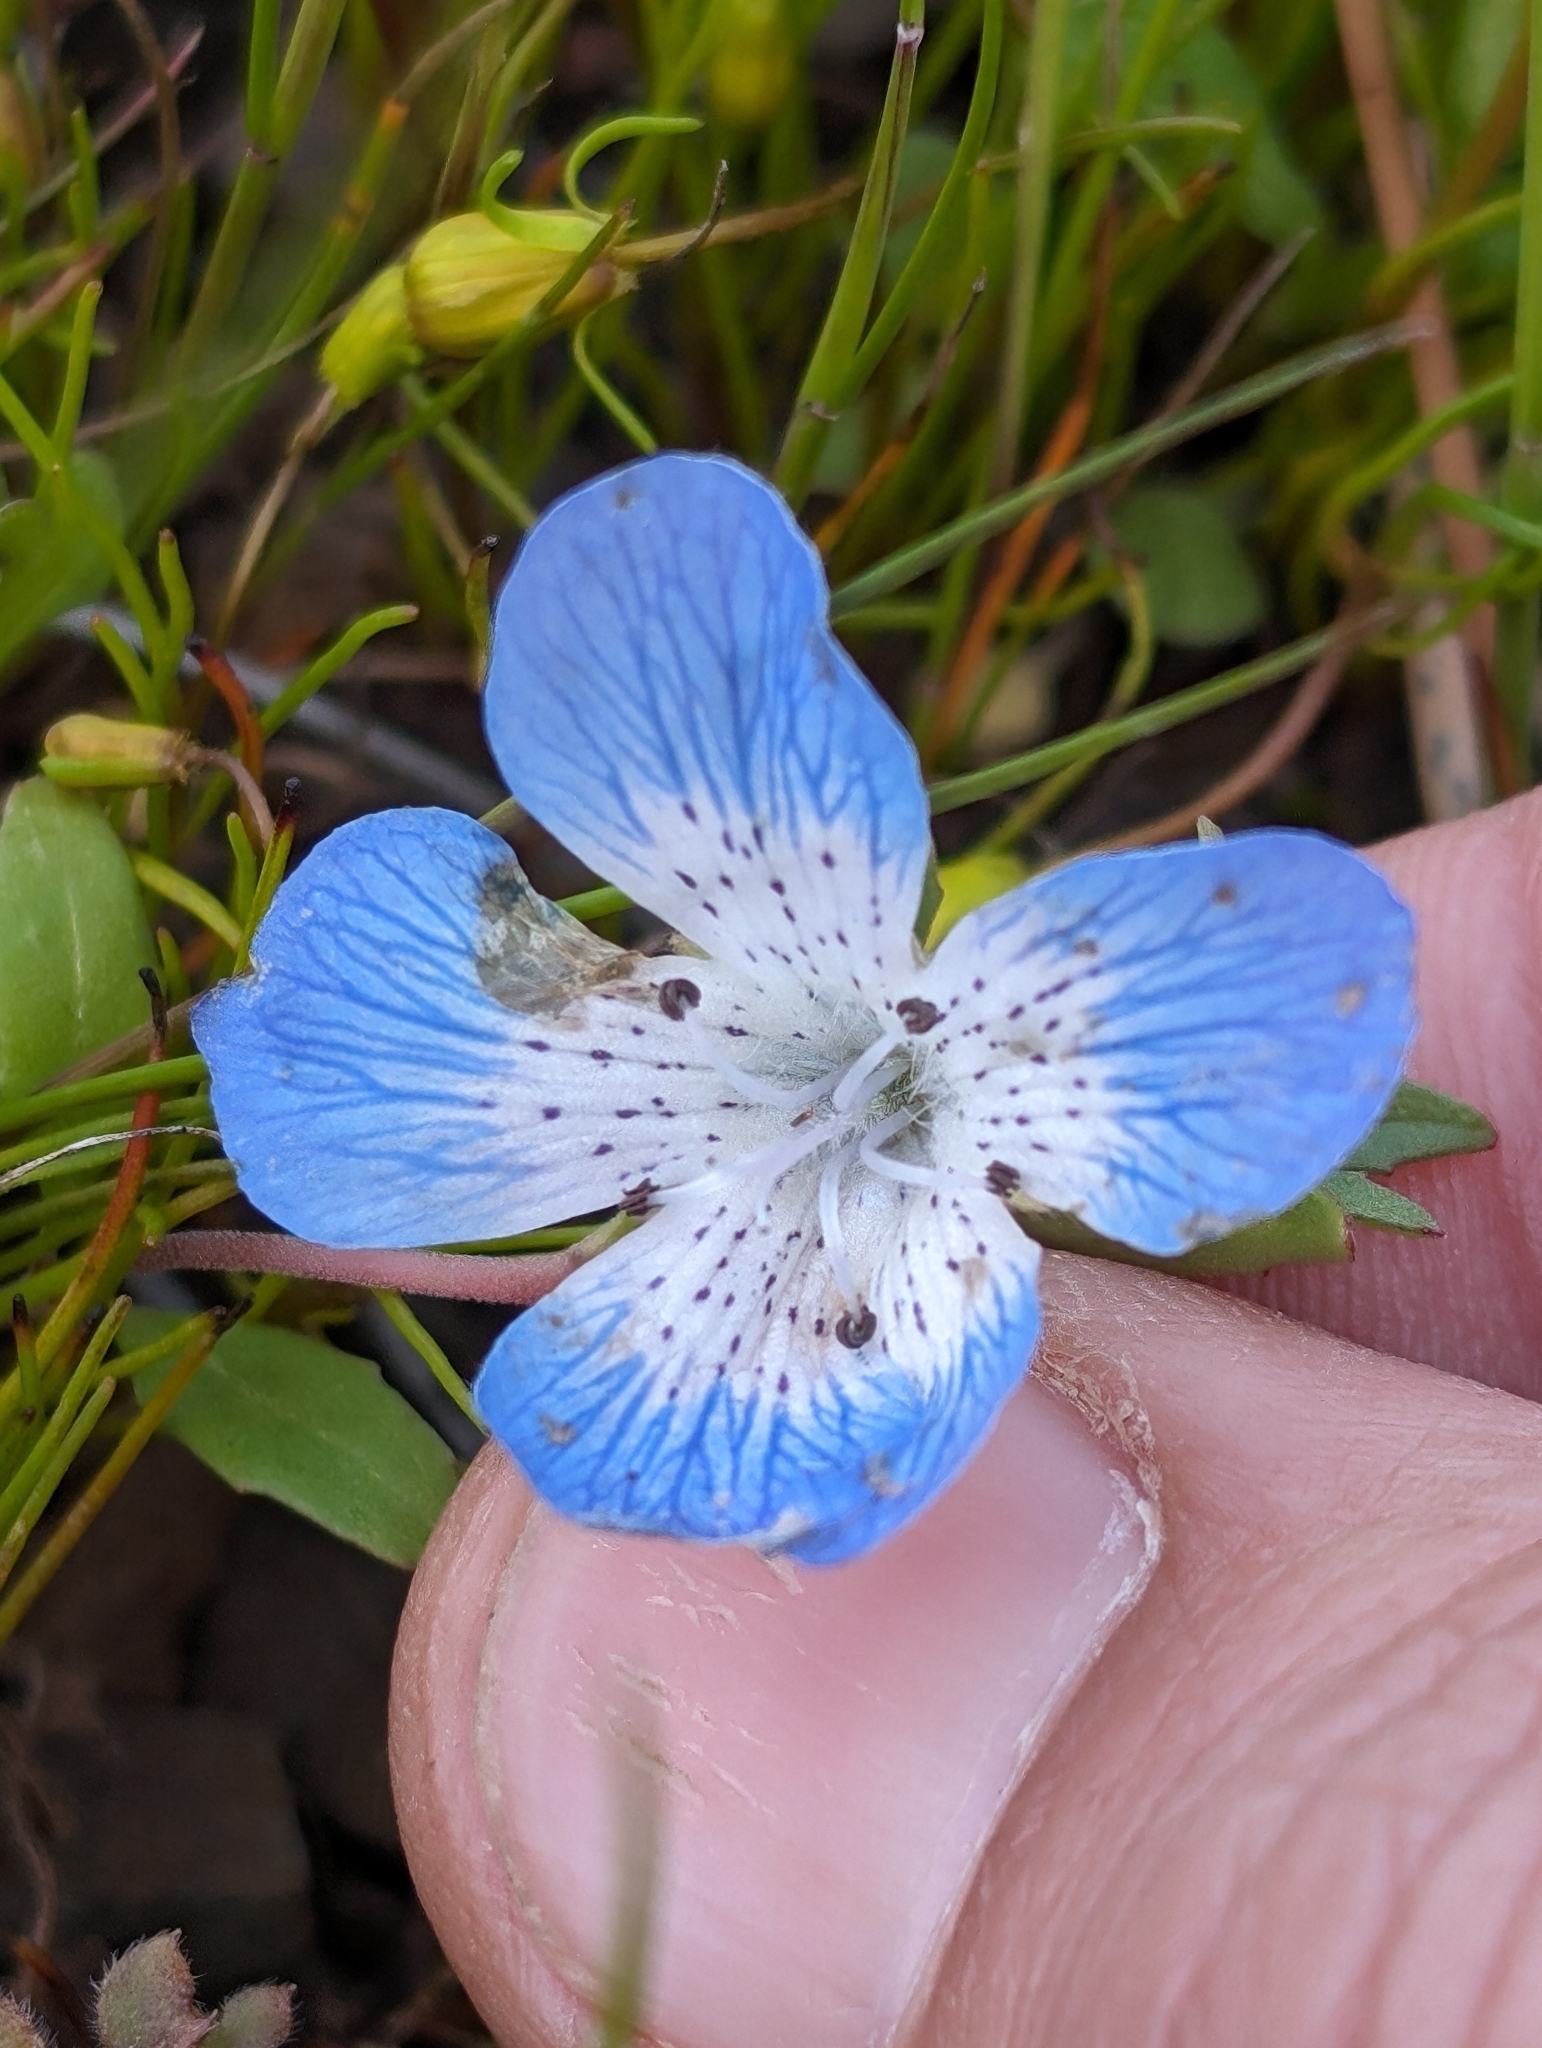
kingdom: Plantae
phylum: Tracheophyta
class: Magnoliopsida
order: Boraginales
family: Hydrophyllaceae
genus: Nemophila
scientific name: Nemophila menziesii
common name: Baby's-blue-eyes
